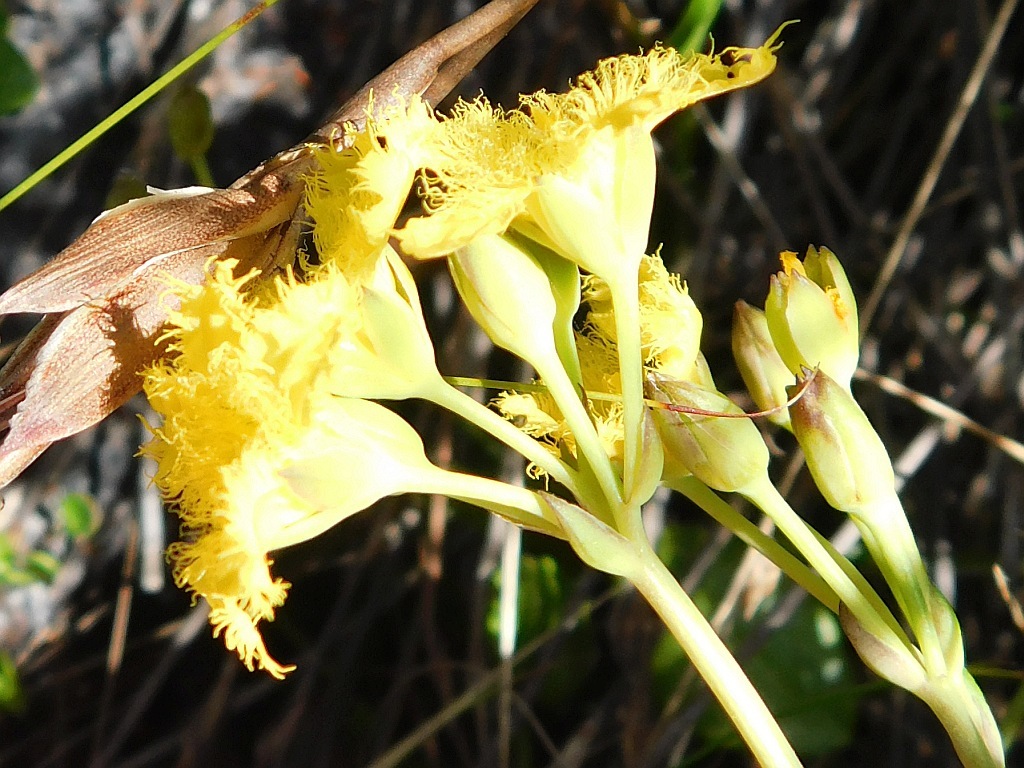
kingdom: Plantae
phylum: Tracheophyta
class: Magnoliopsida
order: Asterales
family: Menyanthaceae
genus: Villarsia
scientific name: Villarsia manningiana
